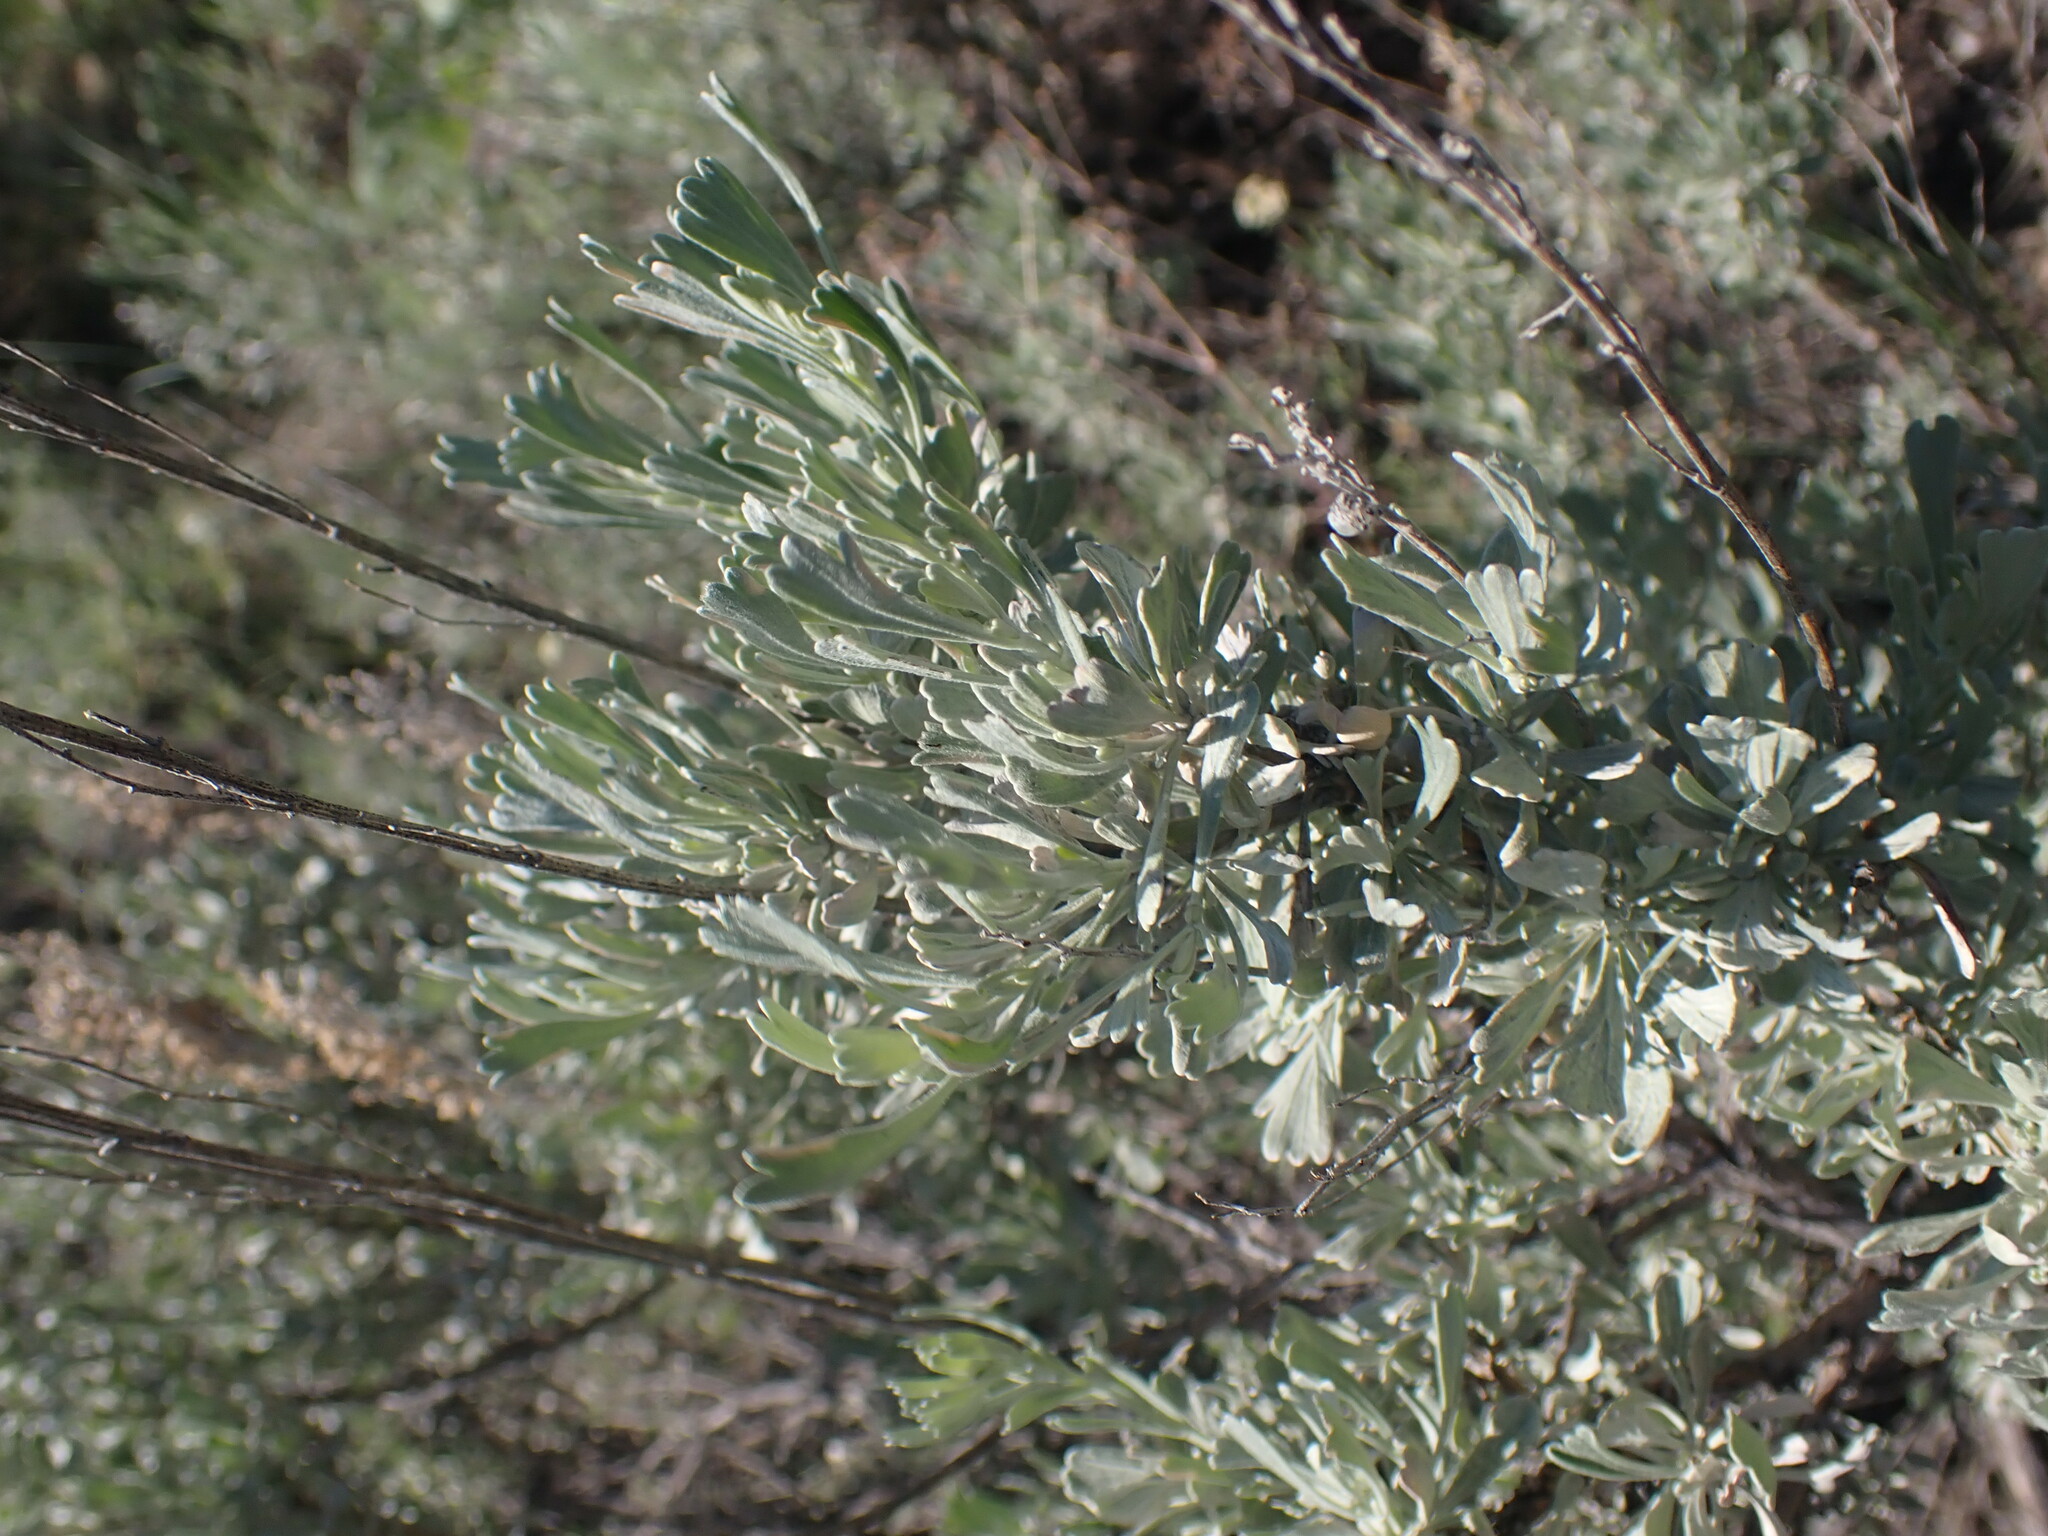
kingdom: Plantae
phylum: Tracheophyta
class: Magnoliopsida
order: Asterales
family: Asteraceae
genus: Artemisia
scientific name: Artemisia tridentata
